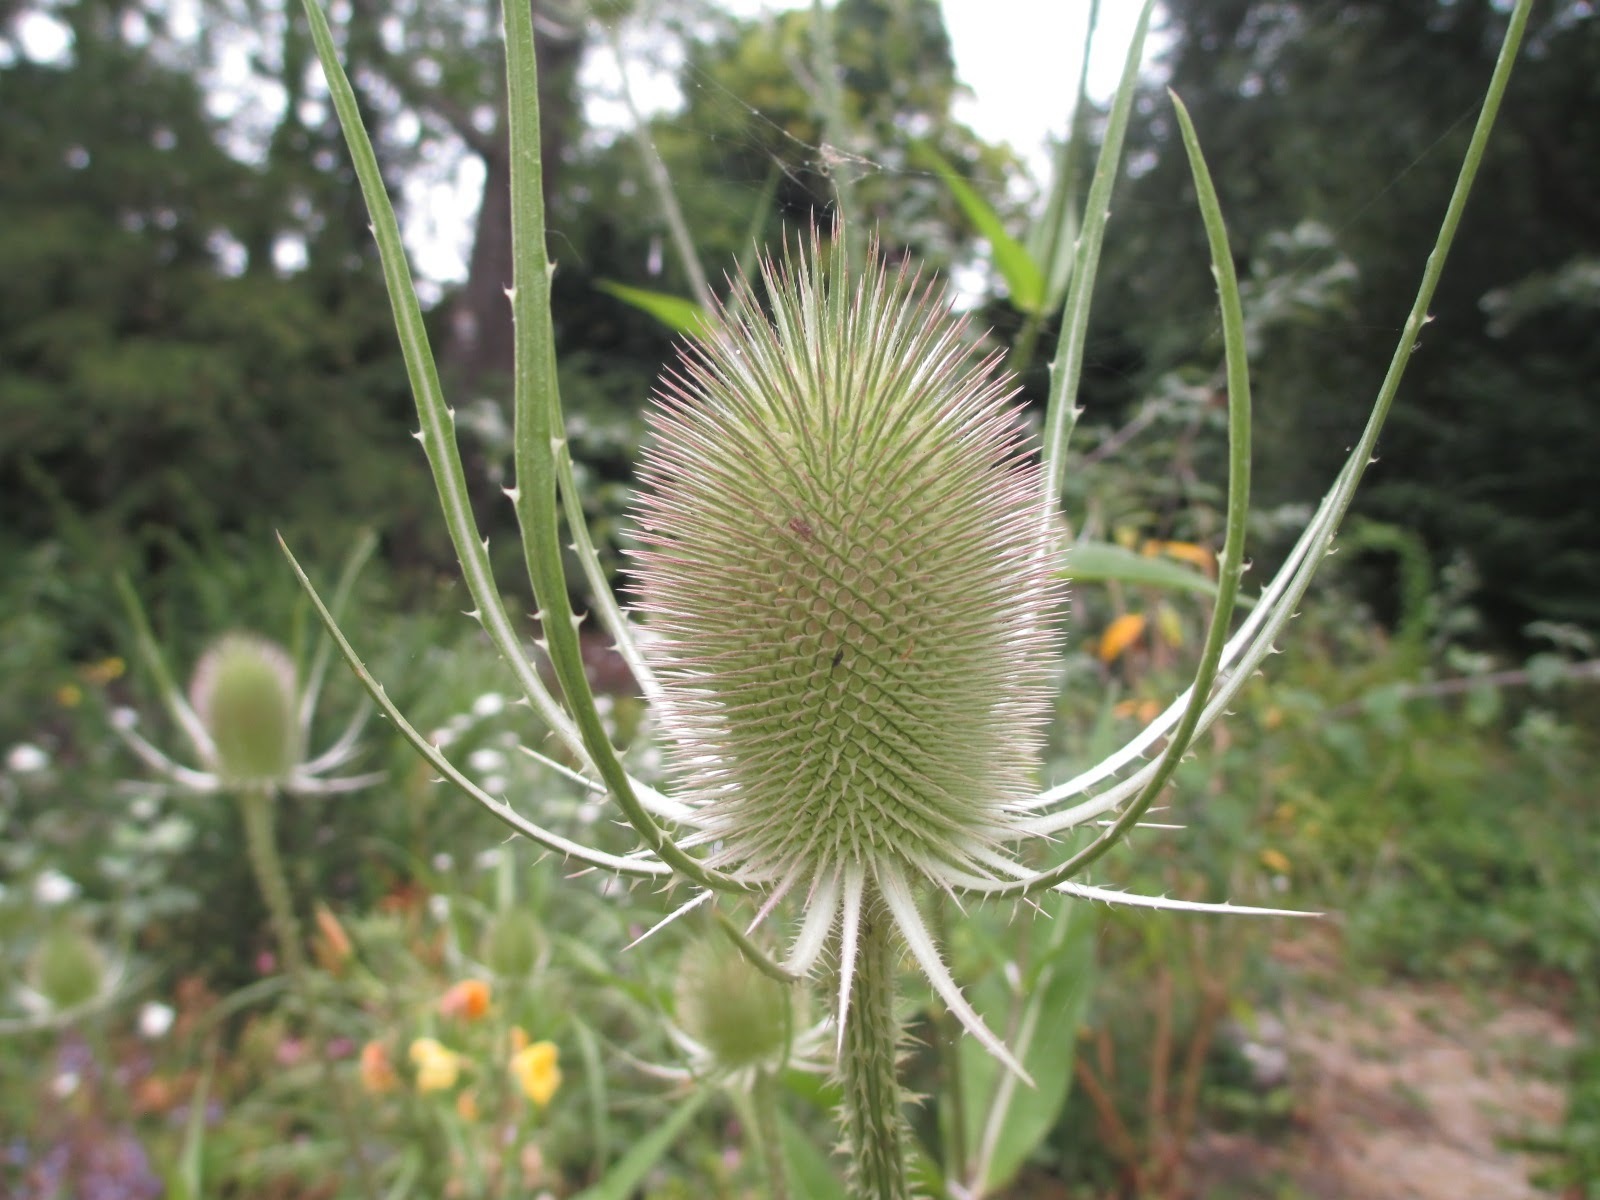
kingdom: Plantae
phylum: Tracheophyta
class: Magnoliopsida
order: Dipsacales
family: Caprifoliaceae
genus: Dipsacus
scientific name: Dipsacus fullonum
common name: Teasel
